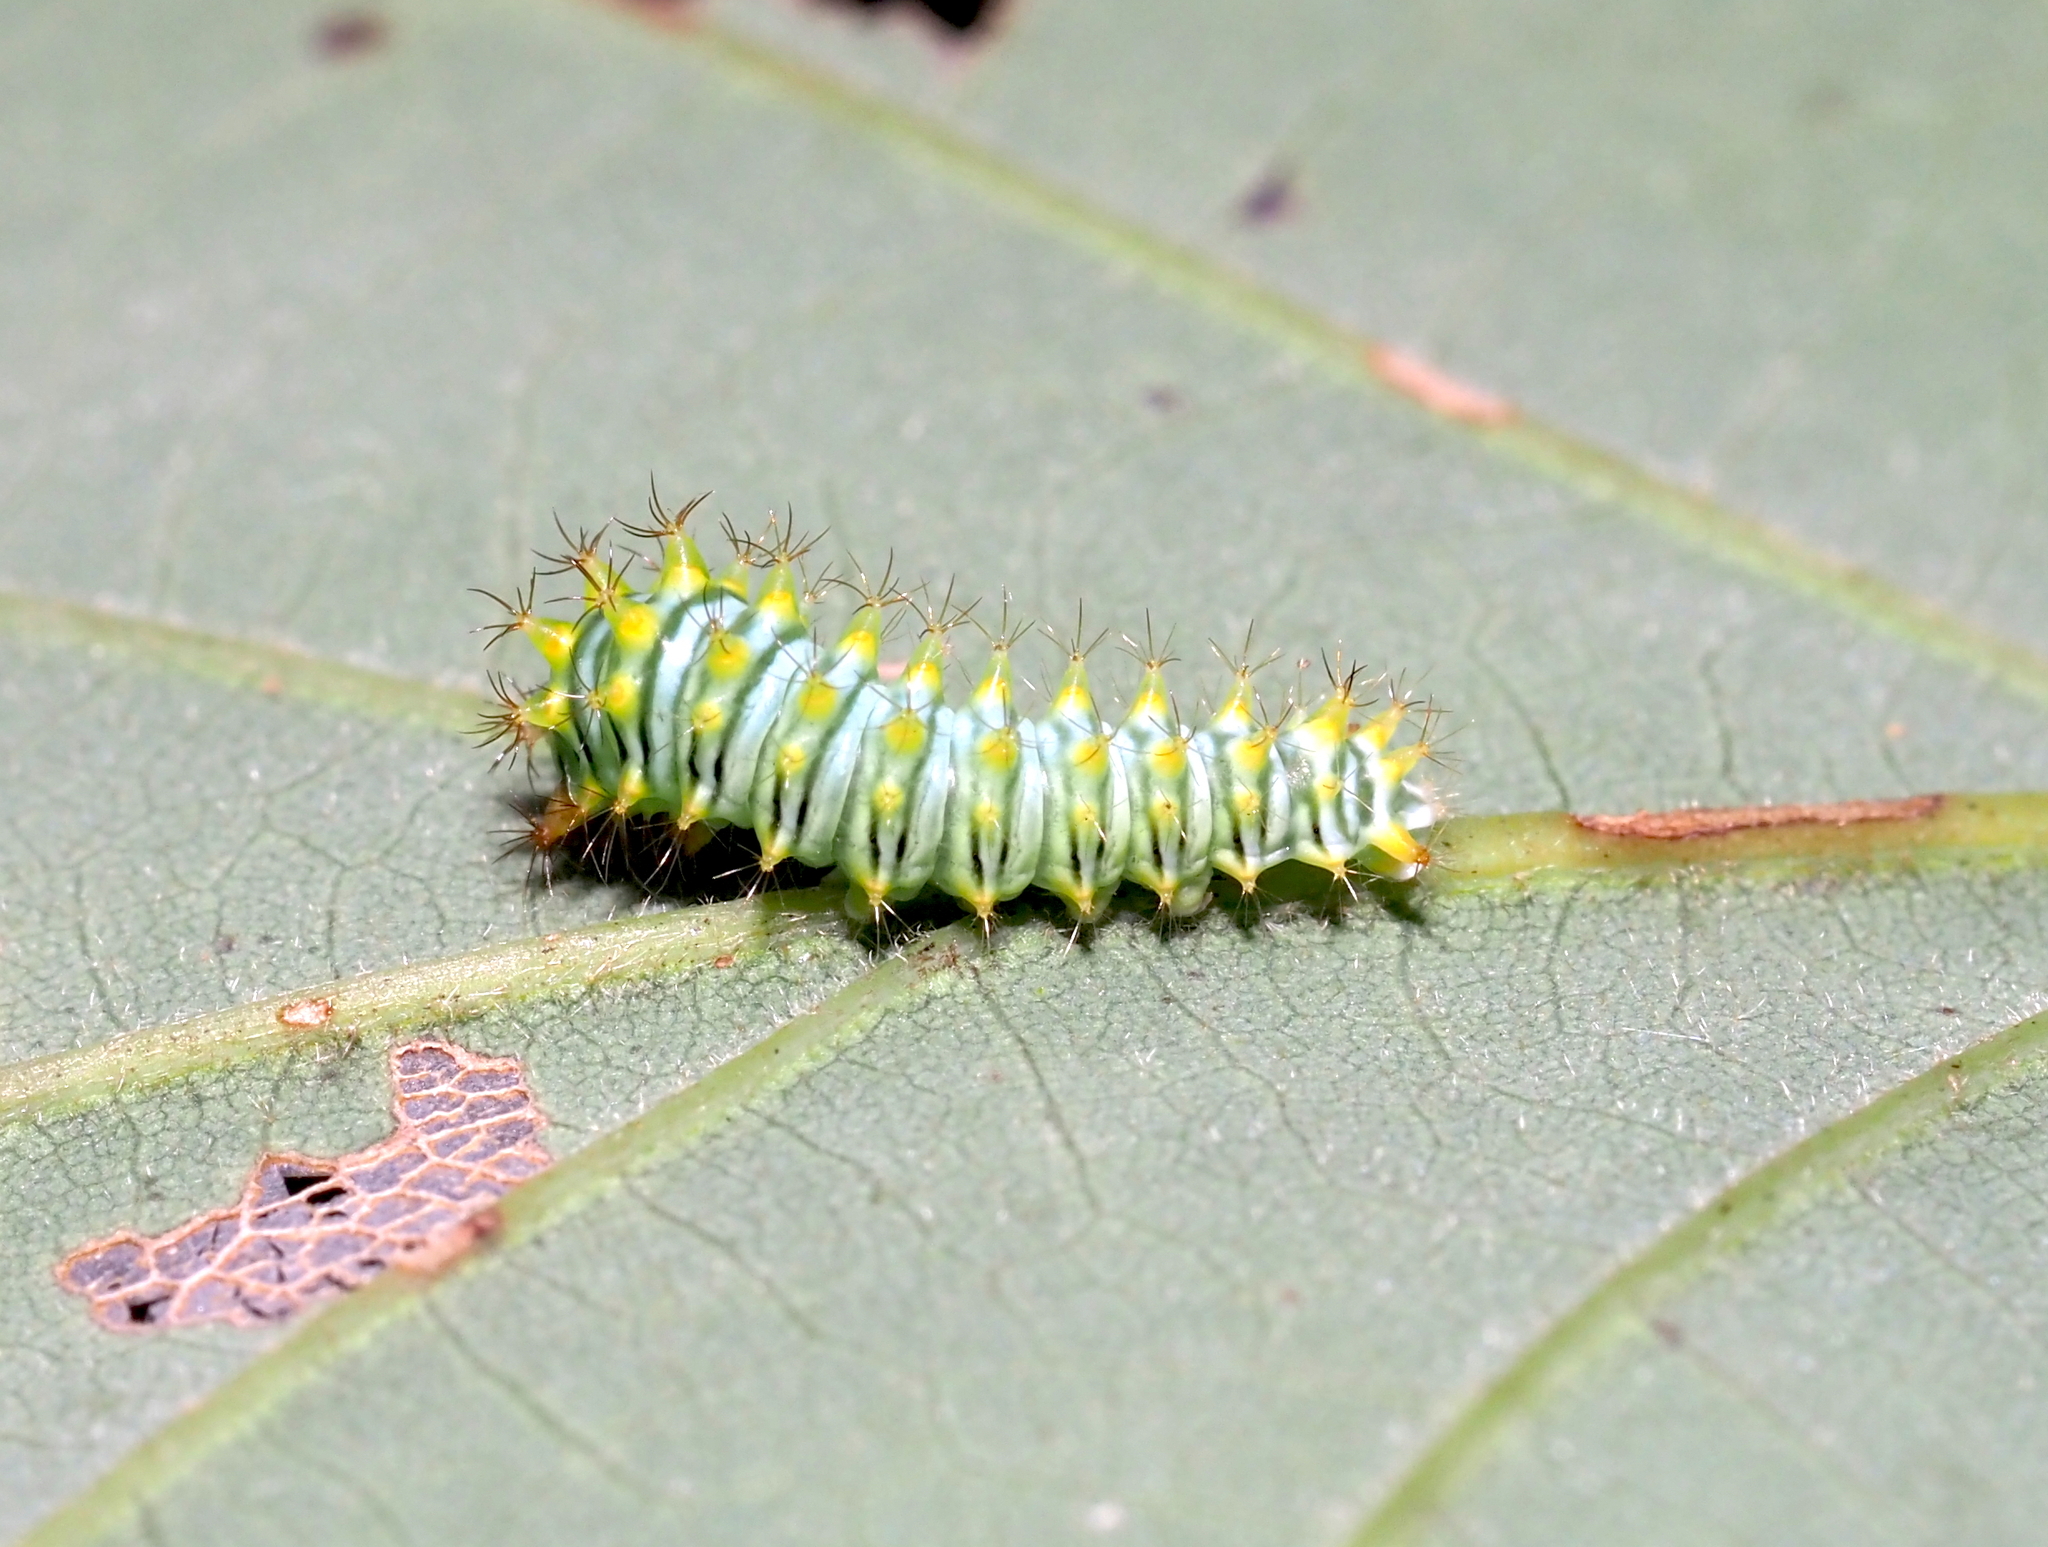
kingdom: Animalia
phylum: Arthropoda
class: Insecta
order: Lepidoptera
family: Saturniidae
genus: Antheraea
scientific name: Antheraea polyphemus
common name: Polyphemus moth
